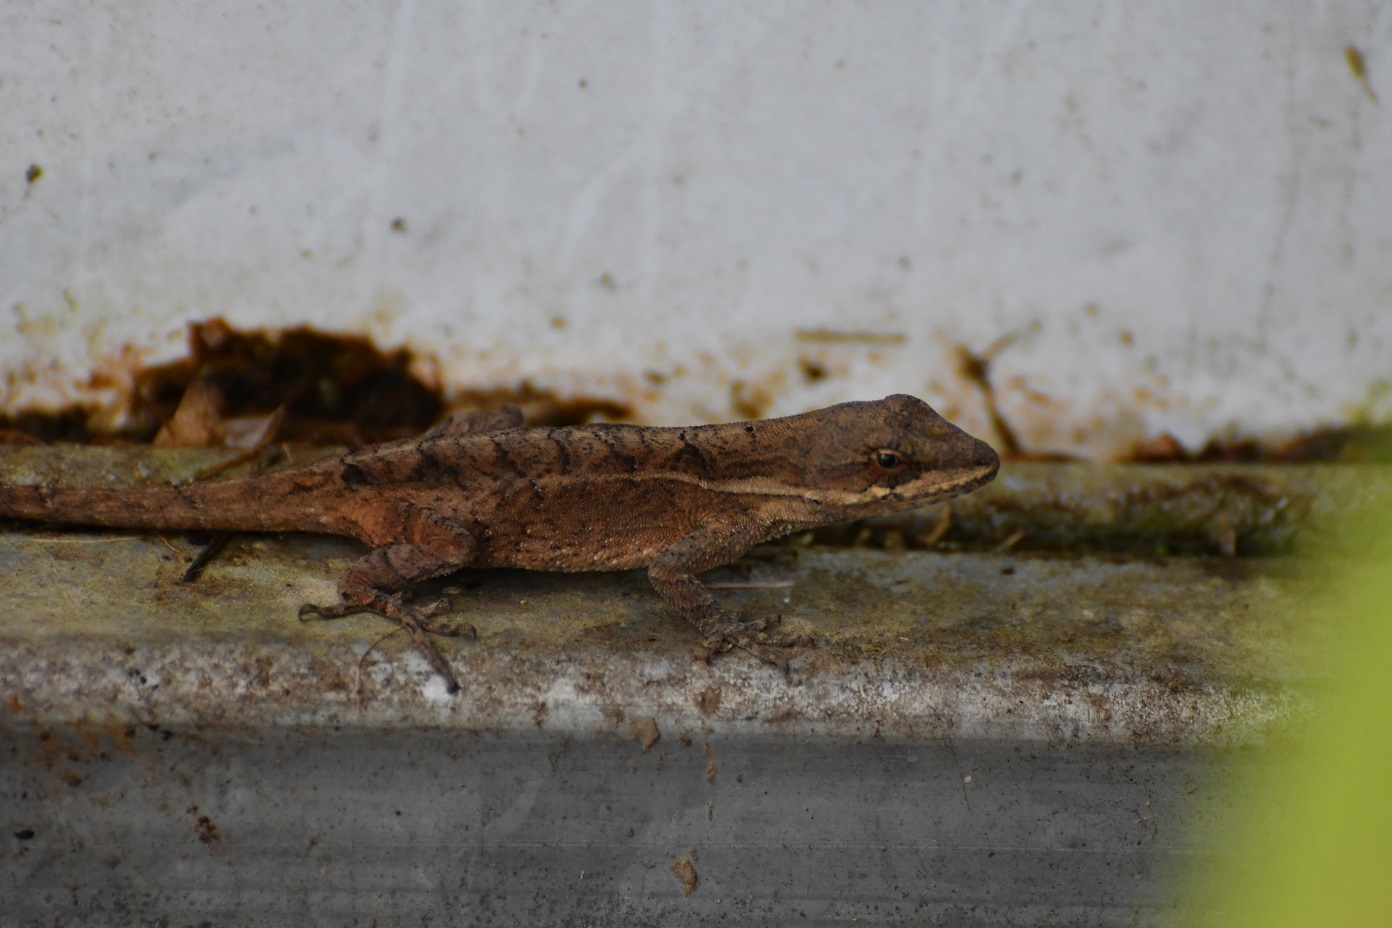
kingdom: Animalia
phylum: Chordata
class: Squamata
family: Dactyloidae
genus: Anolis
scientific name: Anolis anisolepis
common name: Chiapas ornate anole
